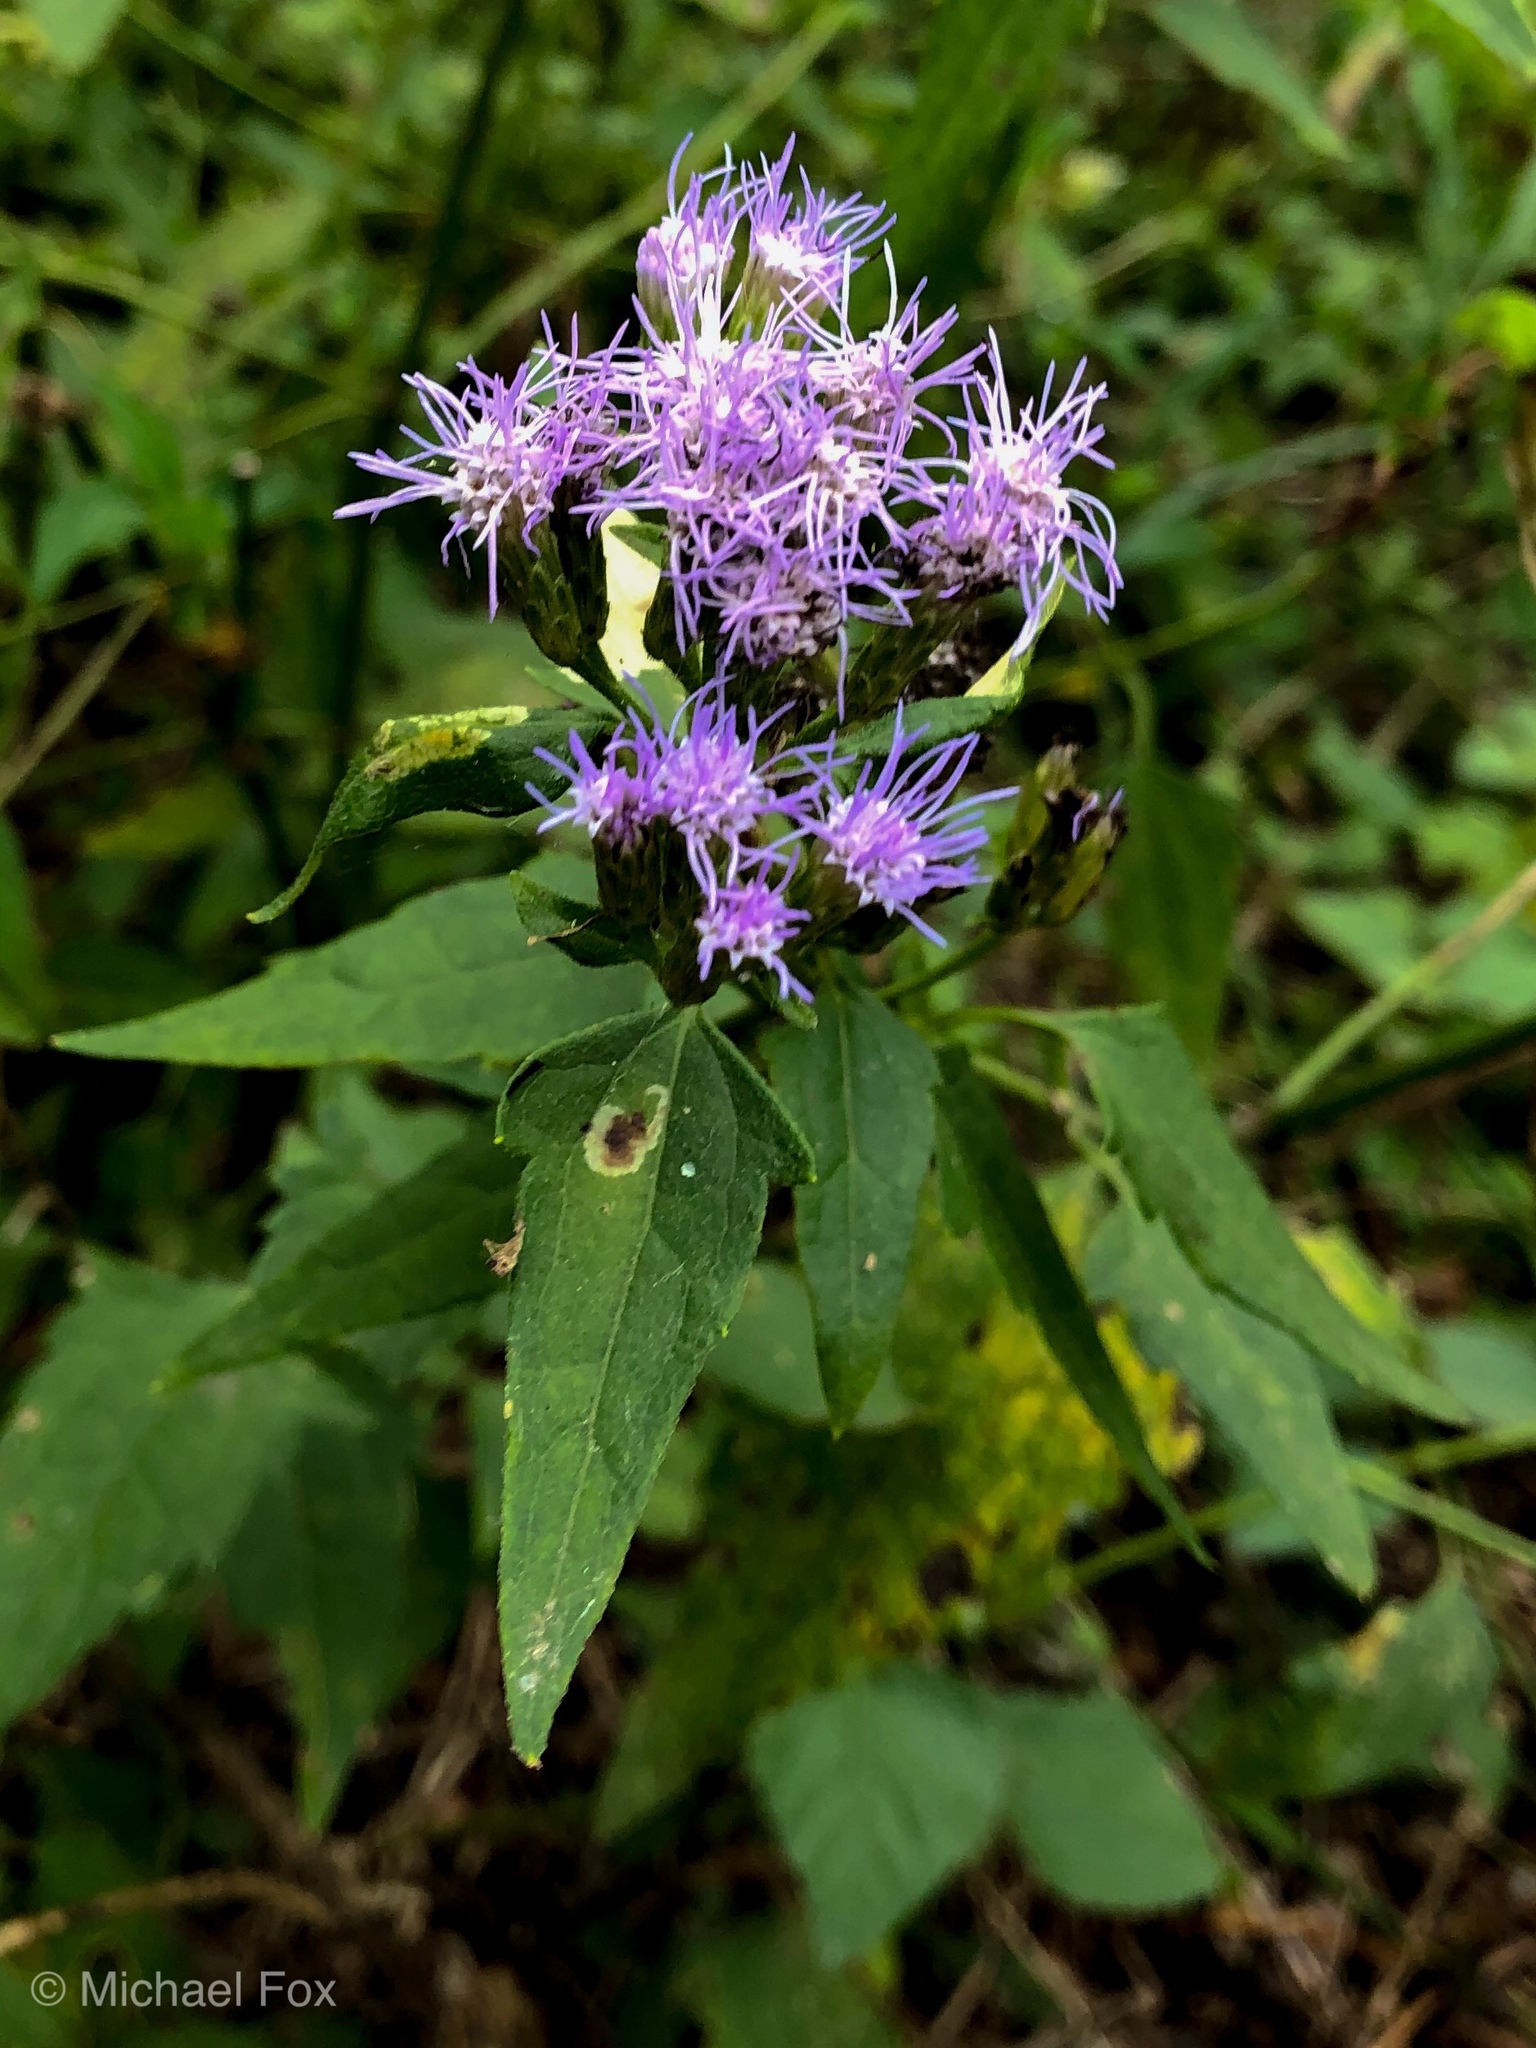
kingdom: Plantae
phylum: Tracheophyta
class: Magnoliopsida
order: Asterales
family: Asteraceae
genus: Chromolaena
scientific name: Chromolaena odorata
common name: Siamweed
